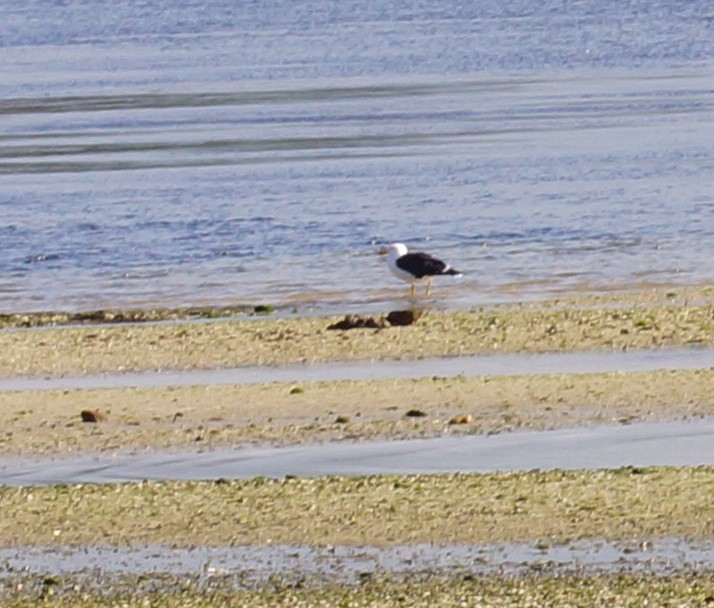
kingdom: Animalia
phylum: Chordata
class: Aves
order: Charadriiformes
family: Laridae
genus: Larus
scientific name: Larus pacificus
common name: Pacific gull
